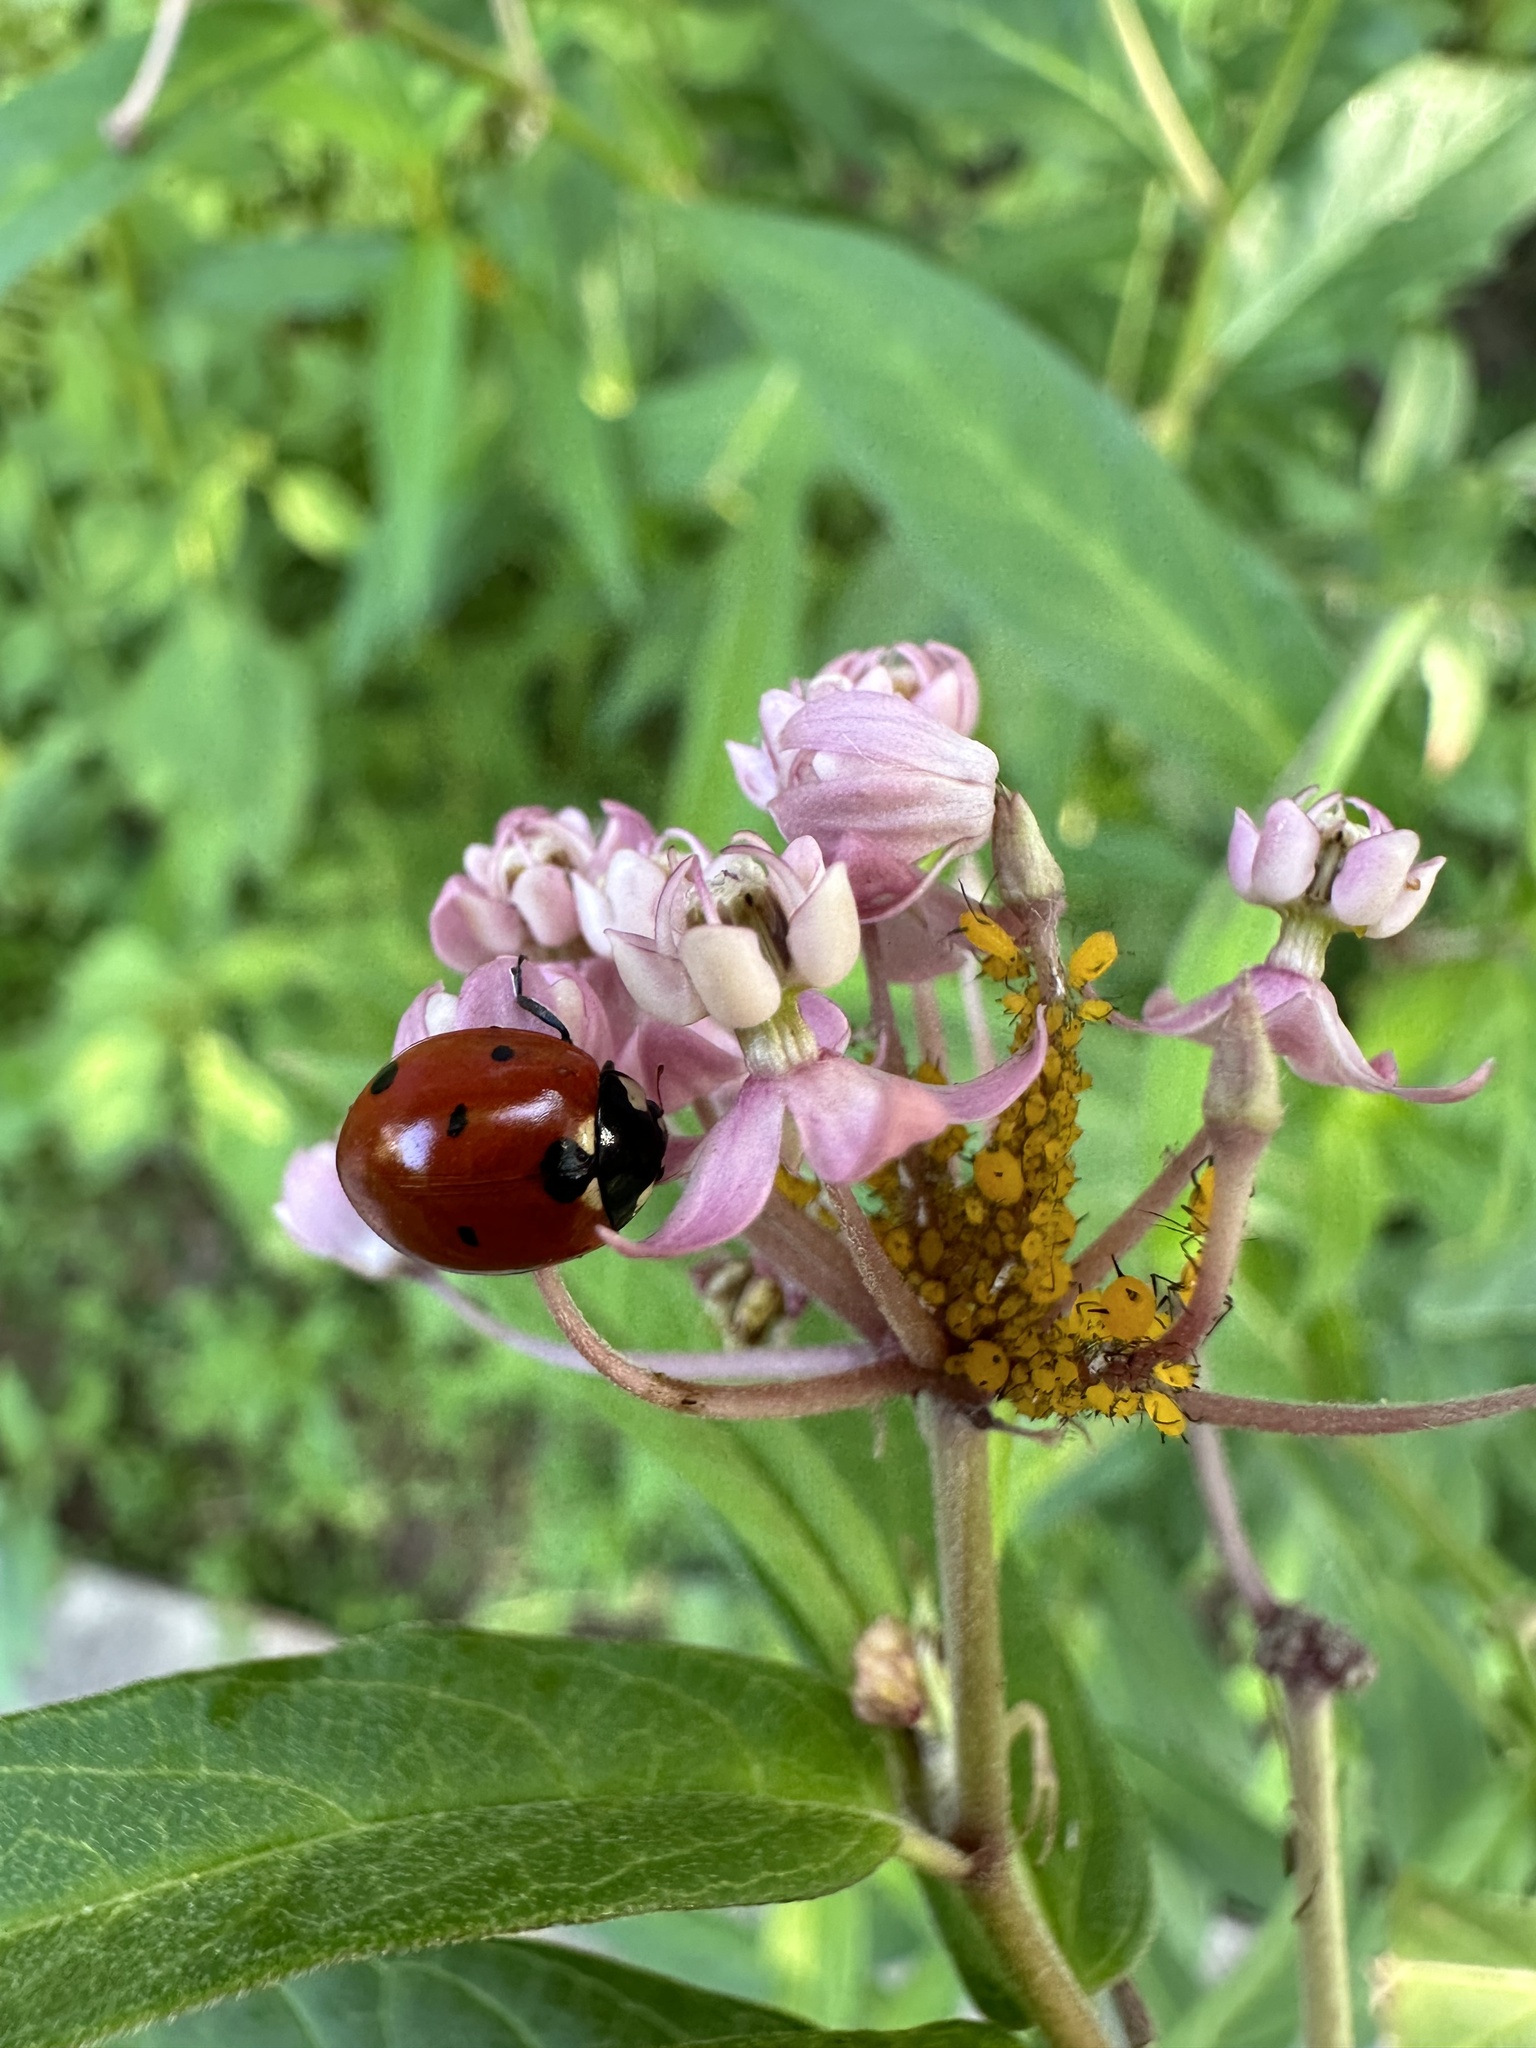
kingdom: Animalia
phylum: Arthropoda
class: Insecta
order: Coleoptera
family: Coccinellidae
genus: Coccinella
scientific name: Coccinella septempunctata
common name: Sevenspotted lady beetle
